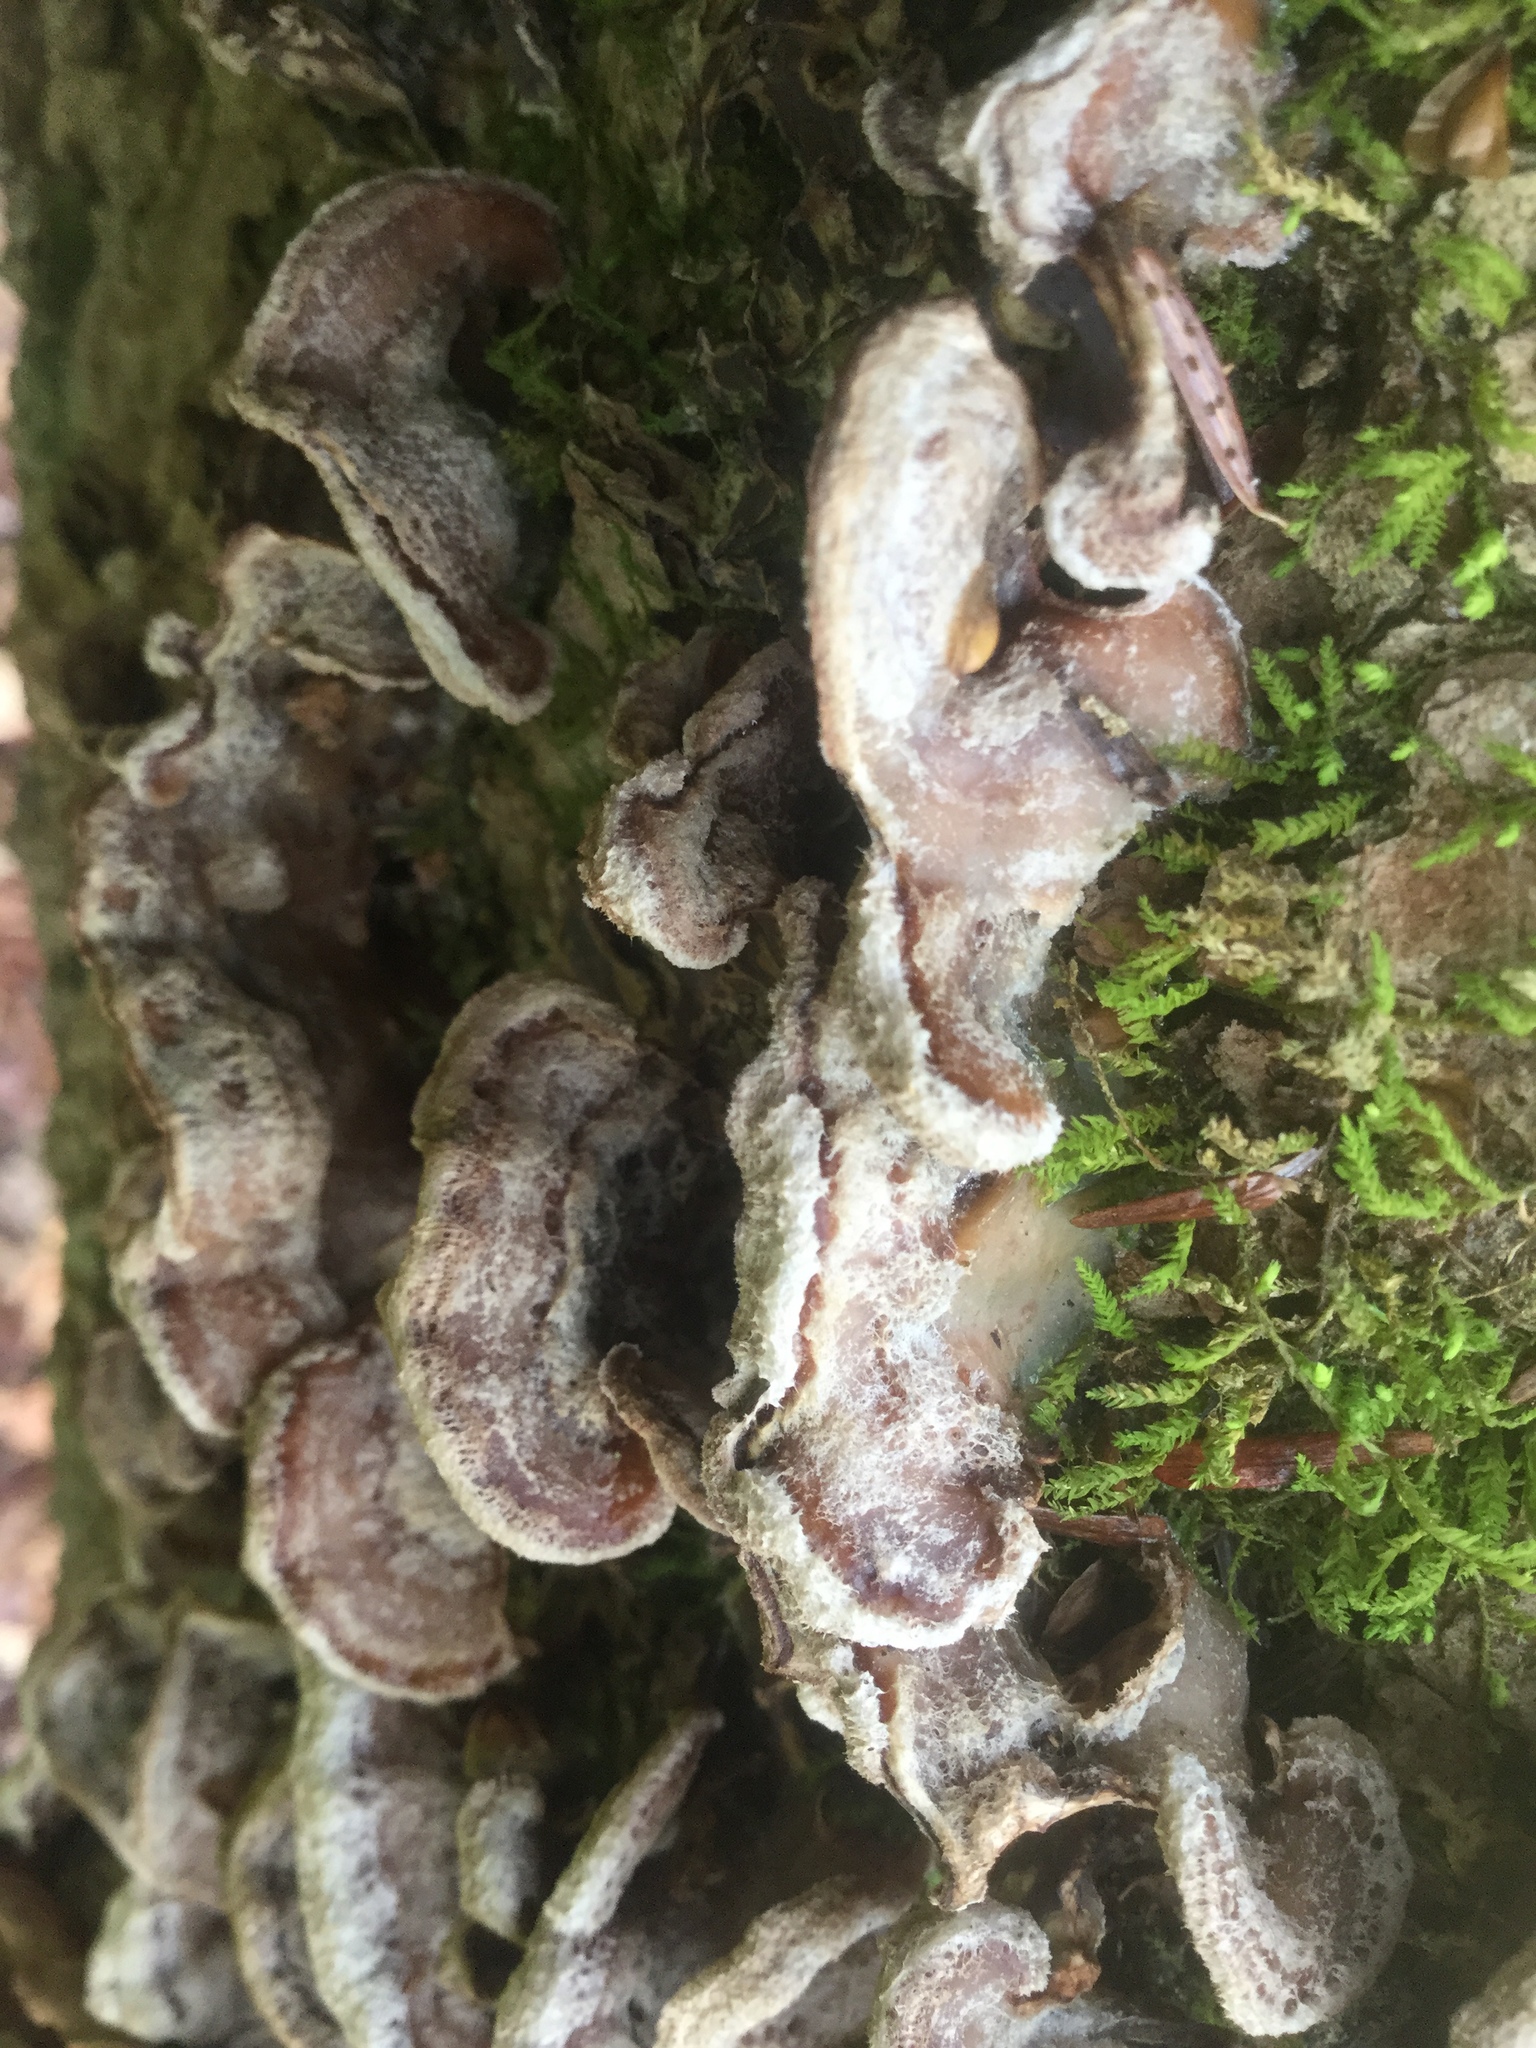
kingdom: Fungi
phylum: Basidiomycota
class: Agaricomycetes
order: Corticiales
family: Punctulariaceae
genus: Punctularia
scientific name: Punctularia strigosozonata
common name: White-rot fungus
